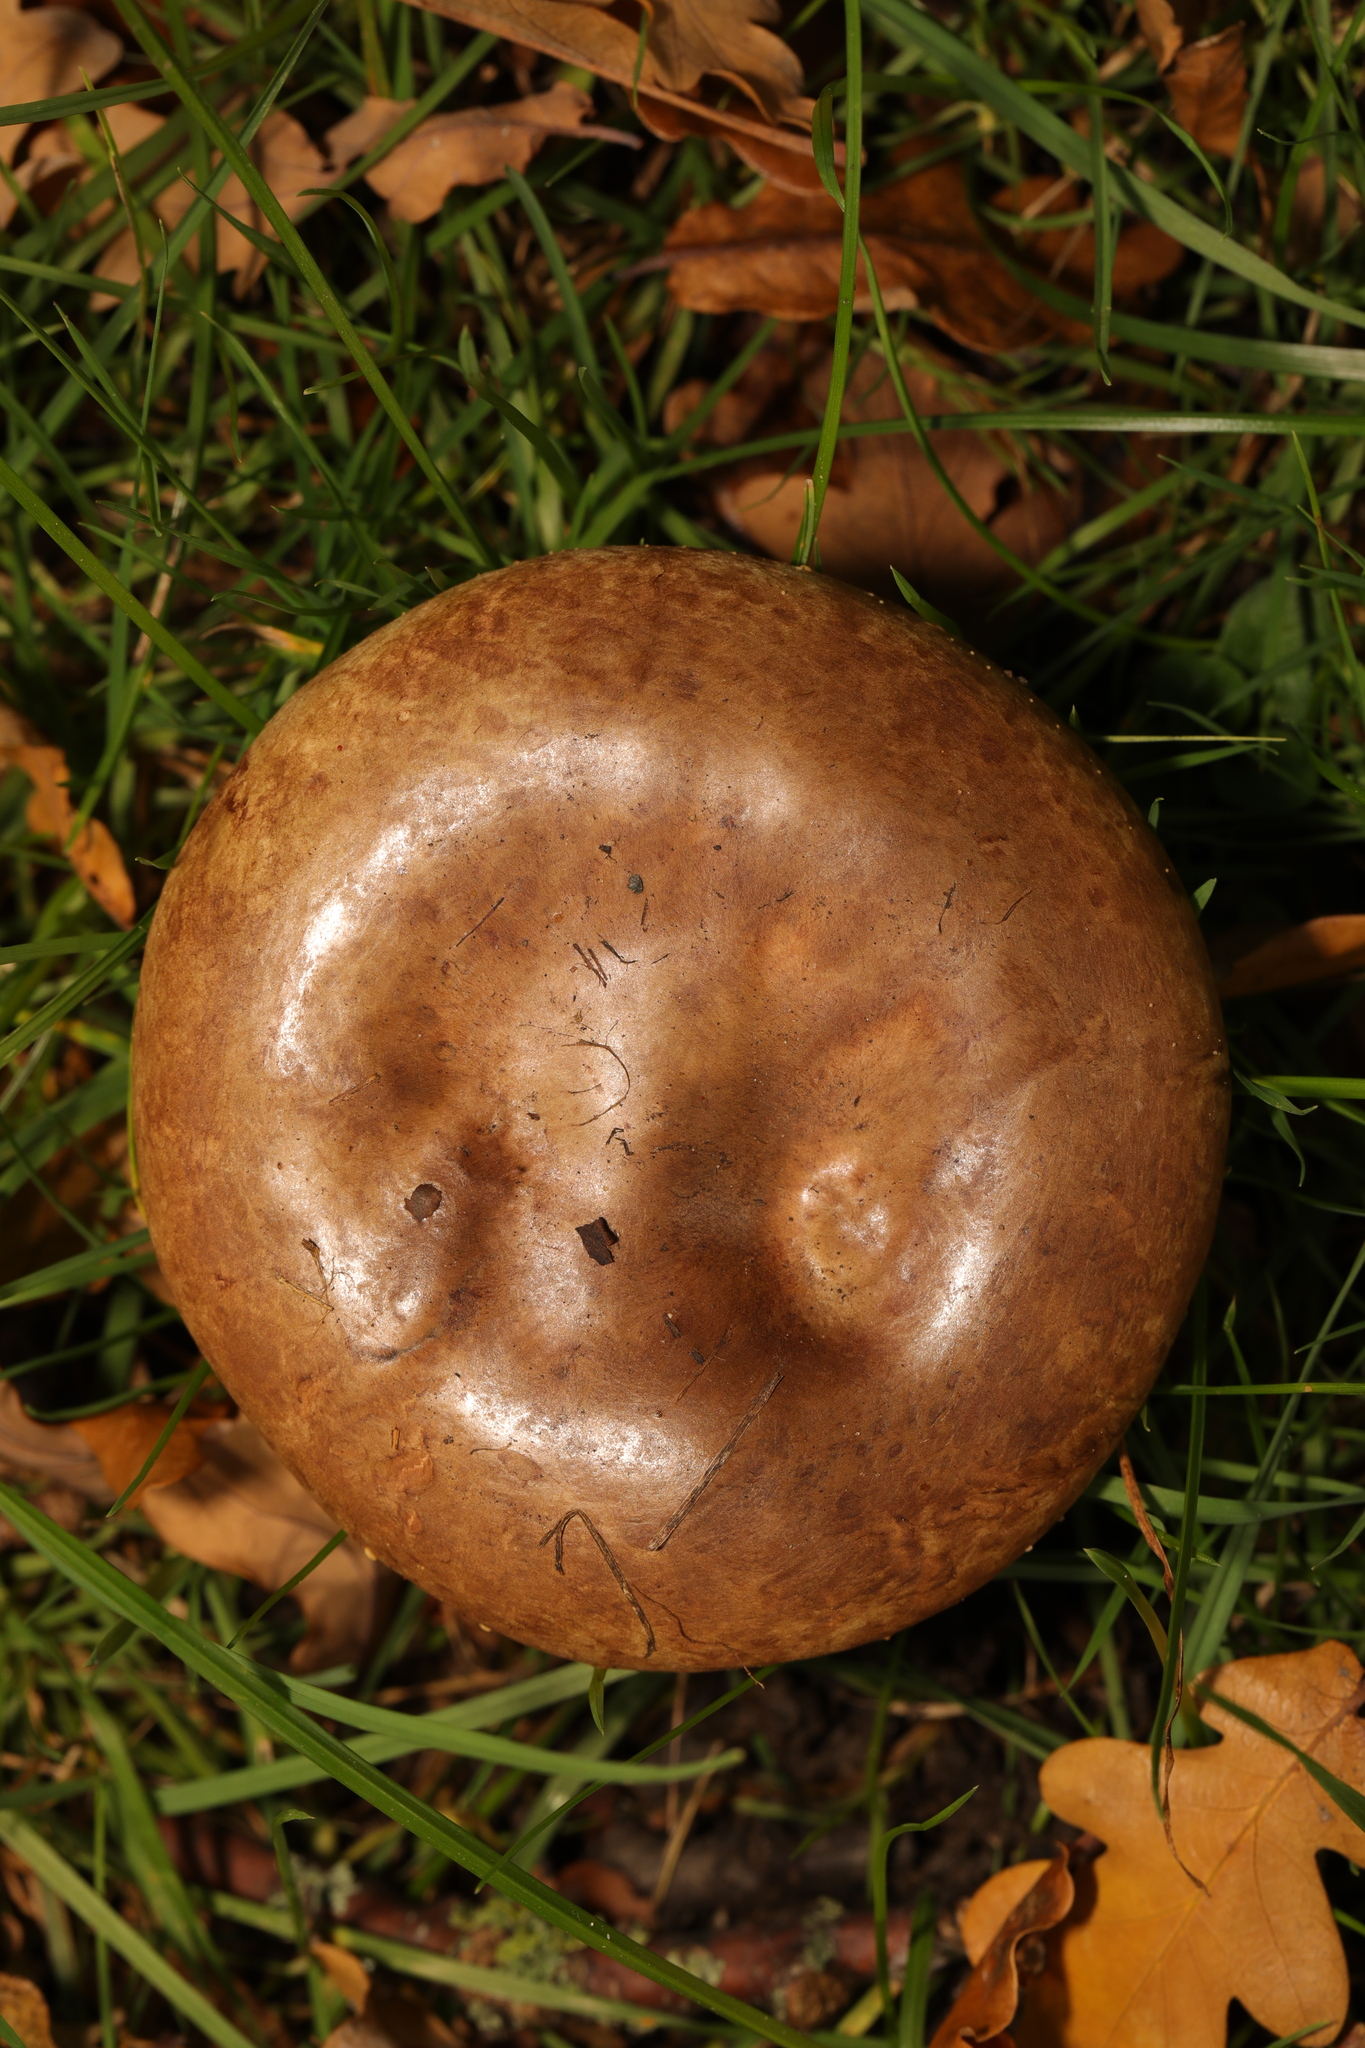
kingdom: Fungi
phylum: Basidiomycota
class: Agaricomycetes
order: Boletales
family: Paxillaceae
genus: Paxillus
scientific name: Paxillus involutus
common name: Brown roll rim
